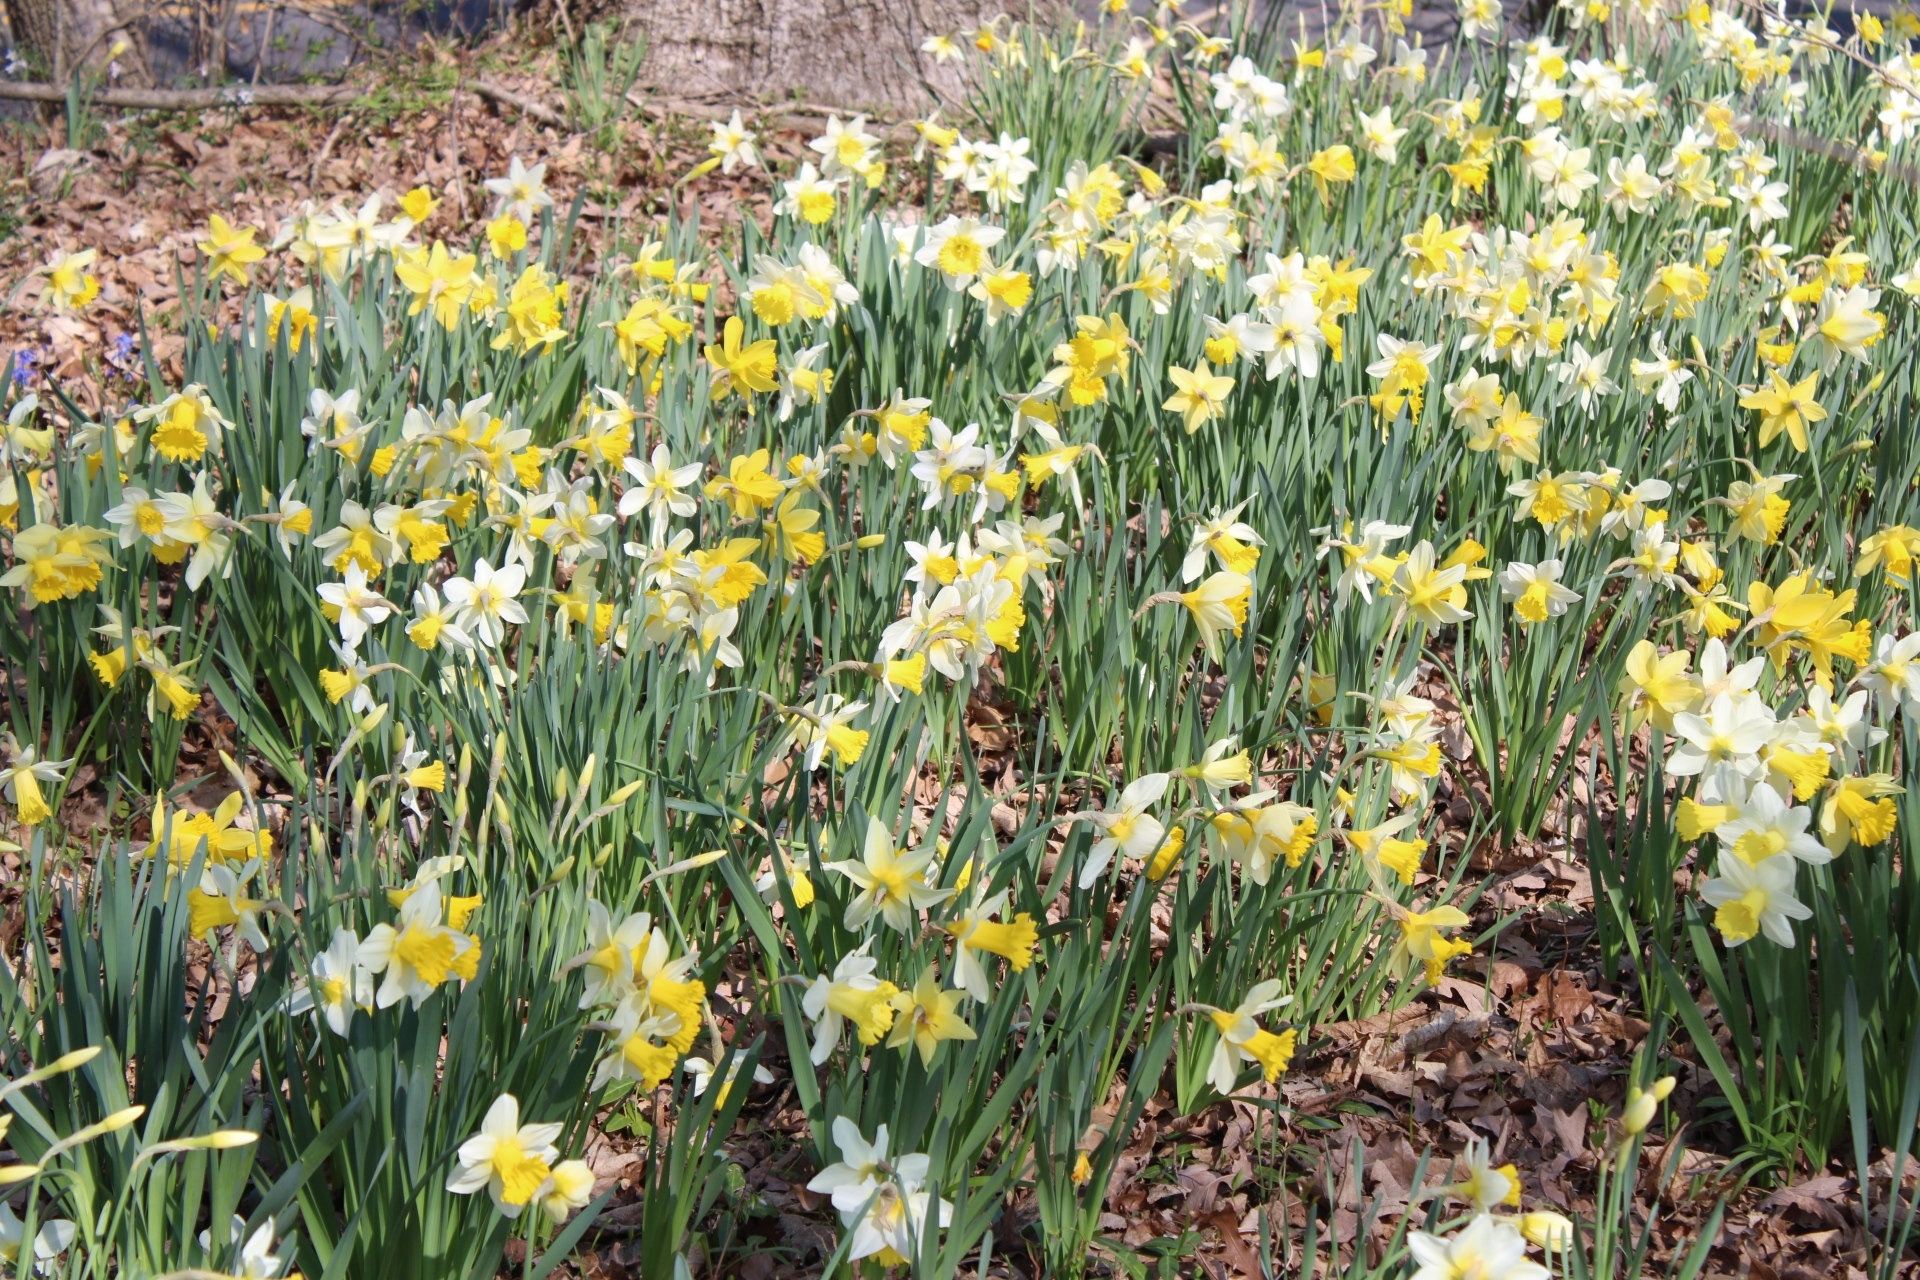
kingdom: Plantae
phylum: Tracheophyta
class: Liliopsida
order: Asparagales
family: Amaryllidaceae
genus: Narcissus
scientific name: Narcissus pseudonarcissus
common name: Daffodil
